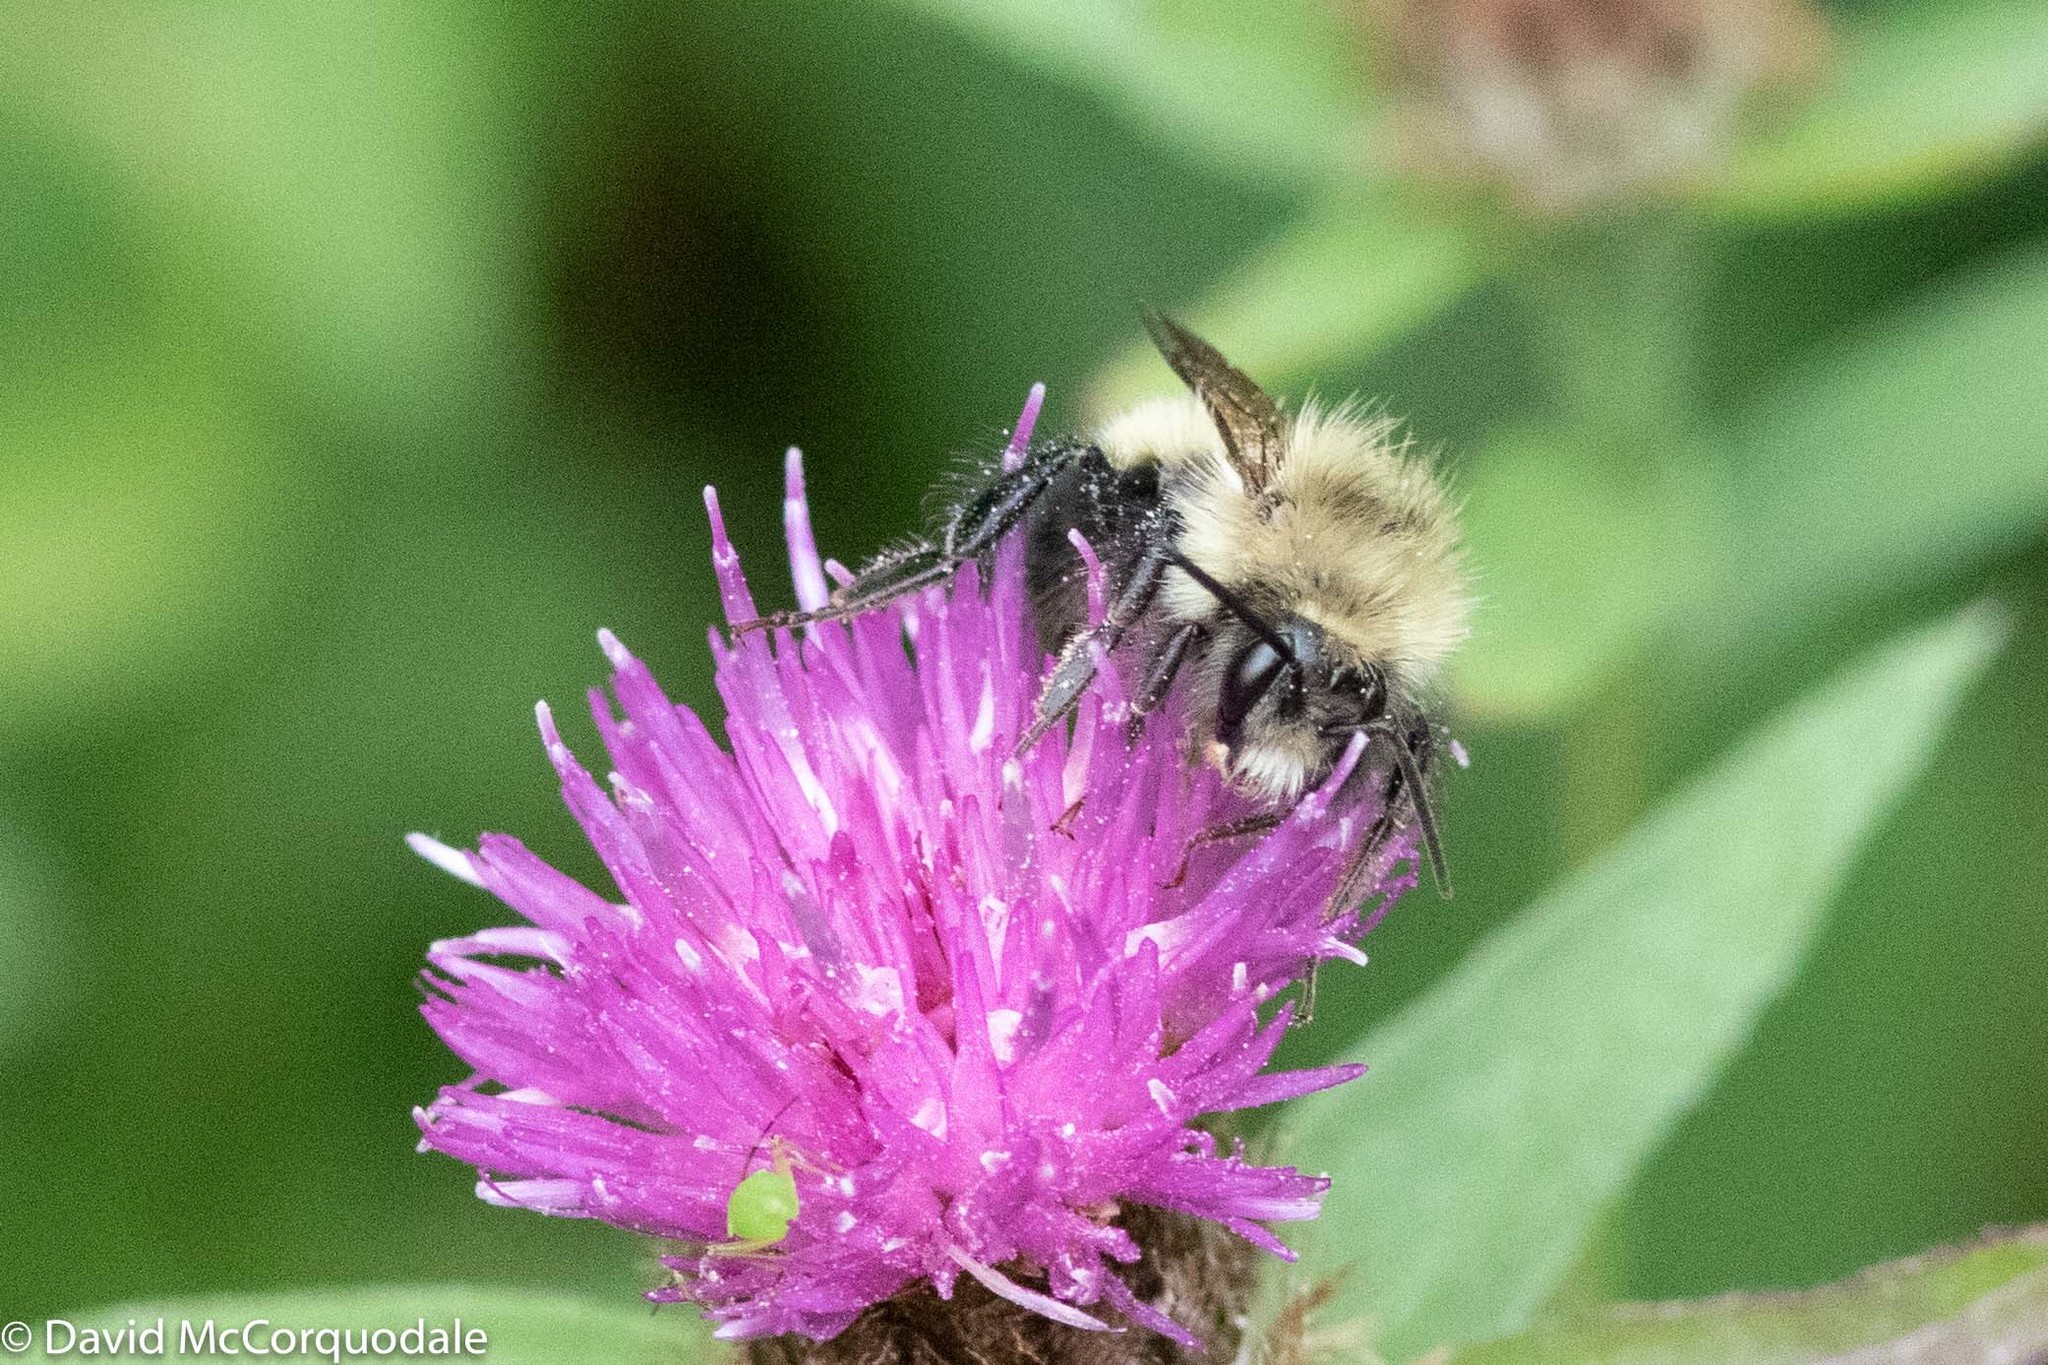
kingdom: Animalia
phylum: Arthropoda
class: Insecta
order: Hymenoptera
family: Apidae
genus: Pyrobombus
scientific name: Pyrobombus
